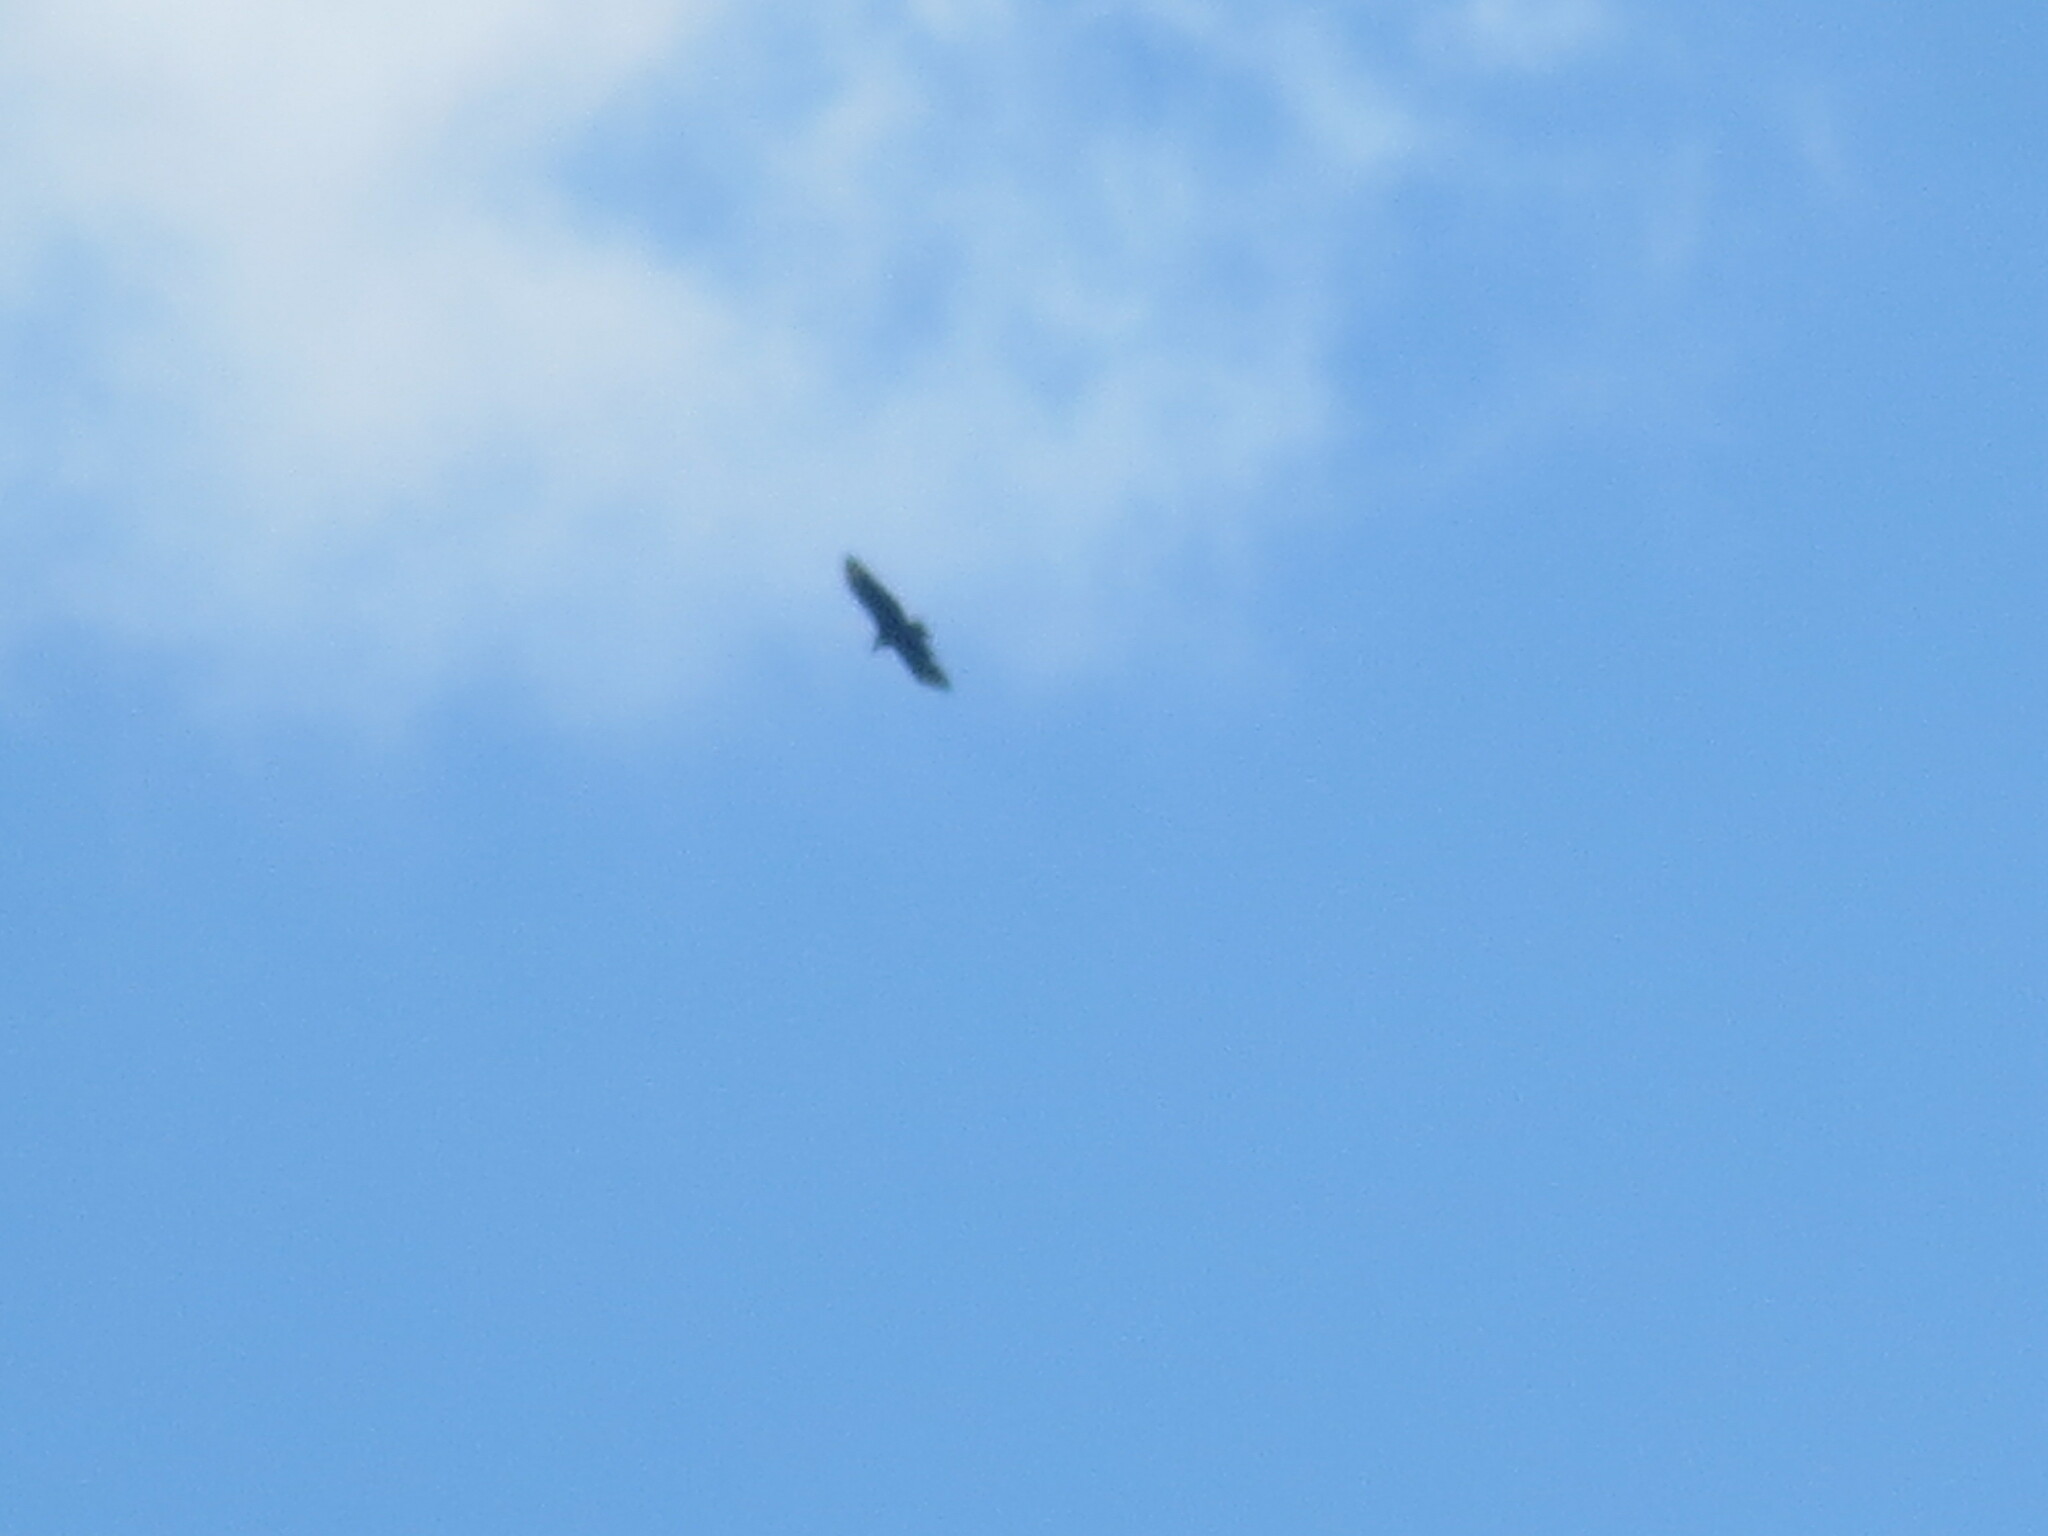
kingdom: Animalia
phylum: Chordata
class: Aves
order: Accipitriformes
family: Cathartidae
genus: Coragyps
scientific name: Coragyps atratus
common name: Black vulture
